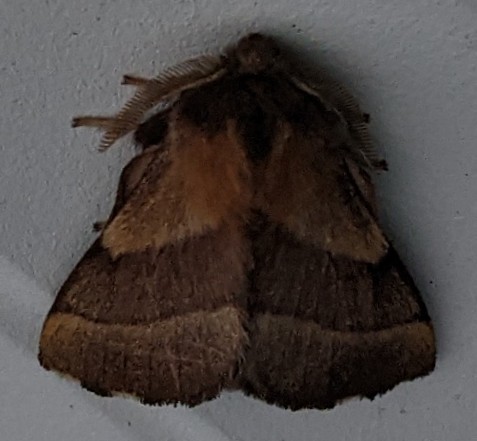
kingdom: Animalia
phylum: Arthropoda
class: Insecta
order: Lepidoptera
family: Lasiocampidae
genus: Malacosoma
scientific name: Malacosoma disstria
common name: Forest tent caterpillar
